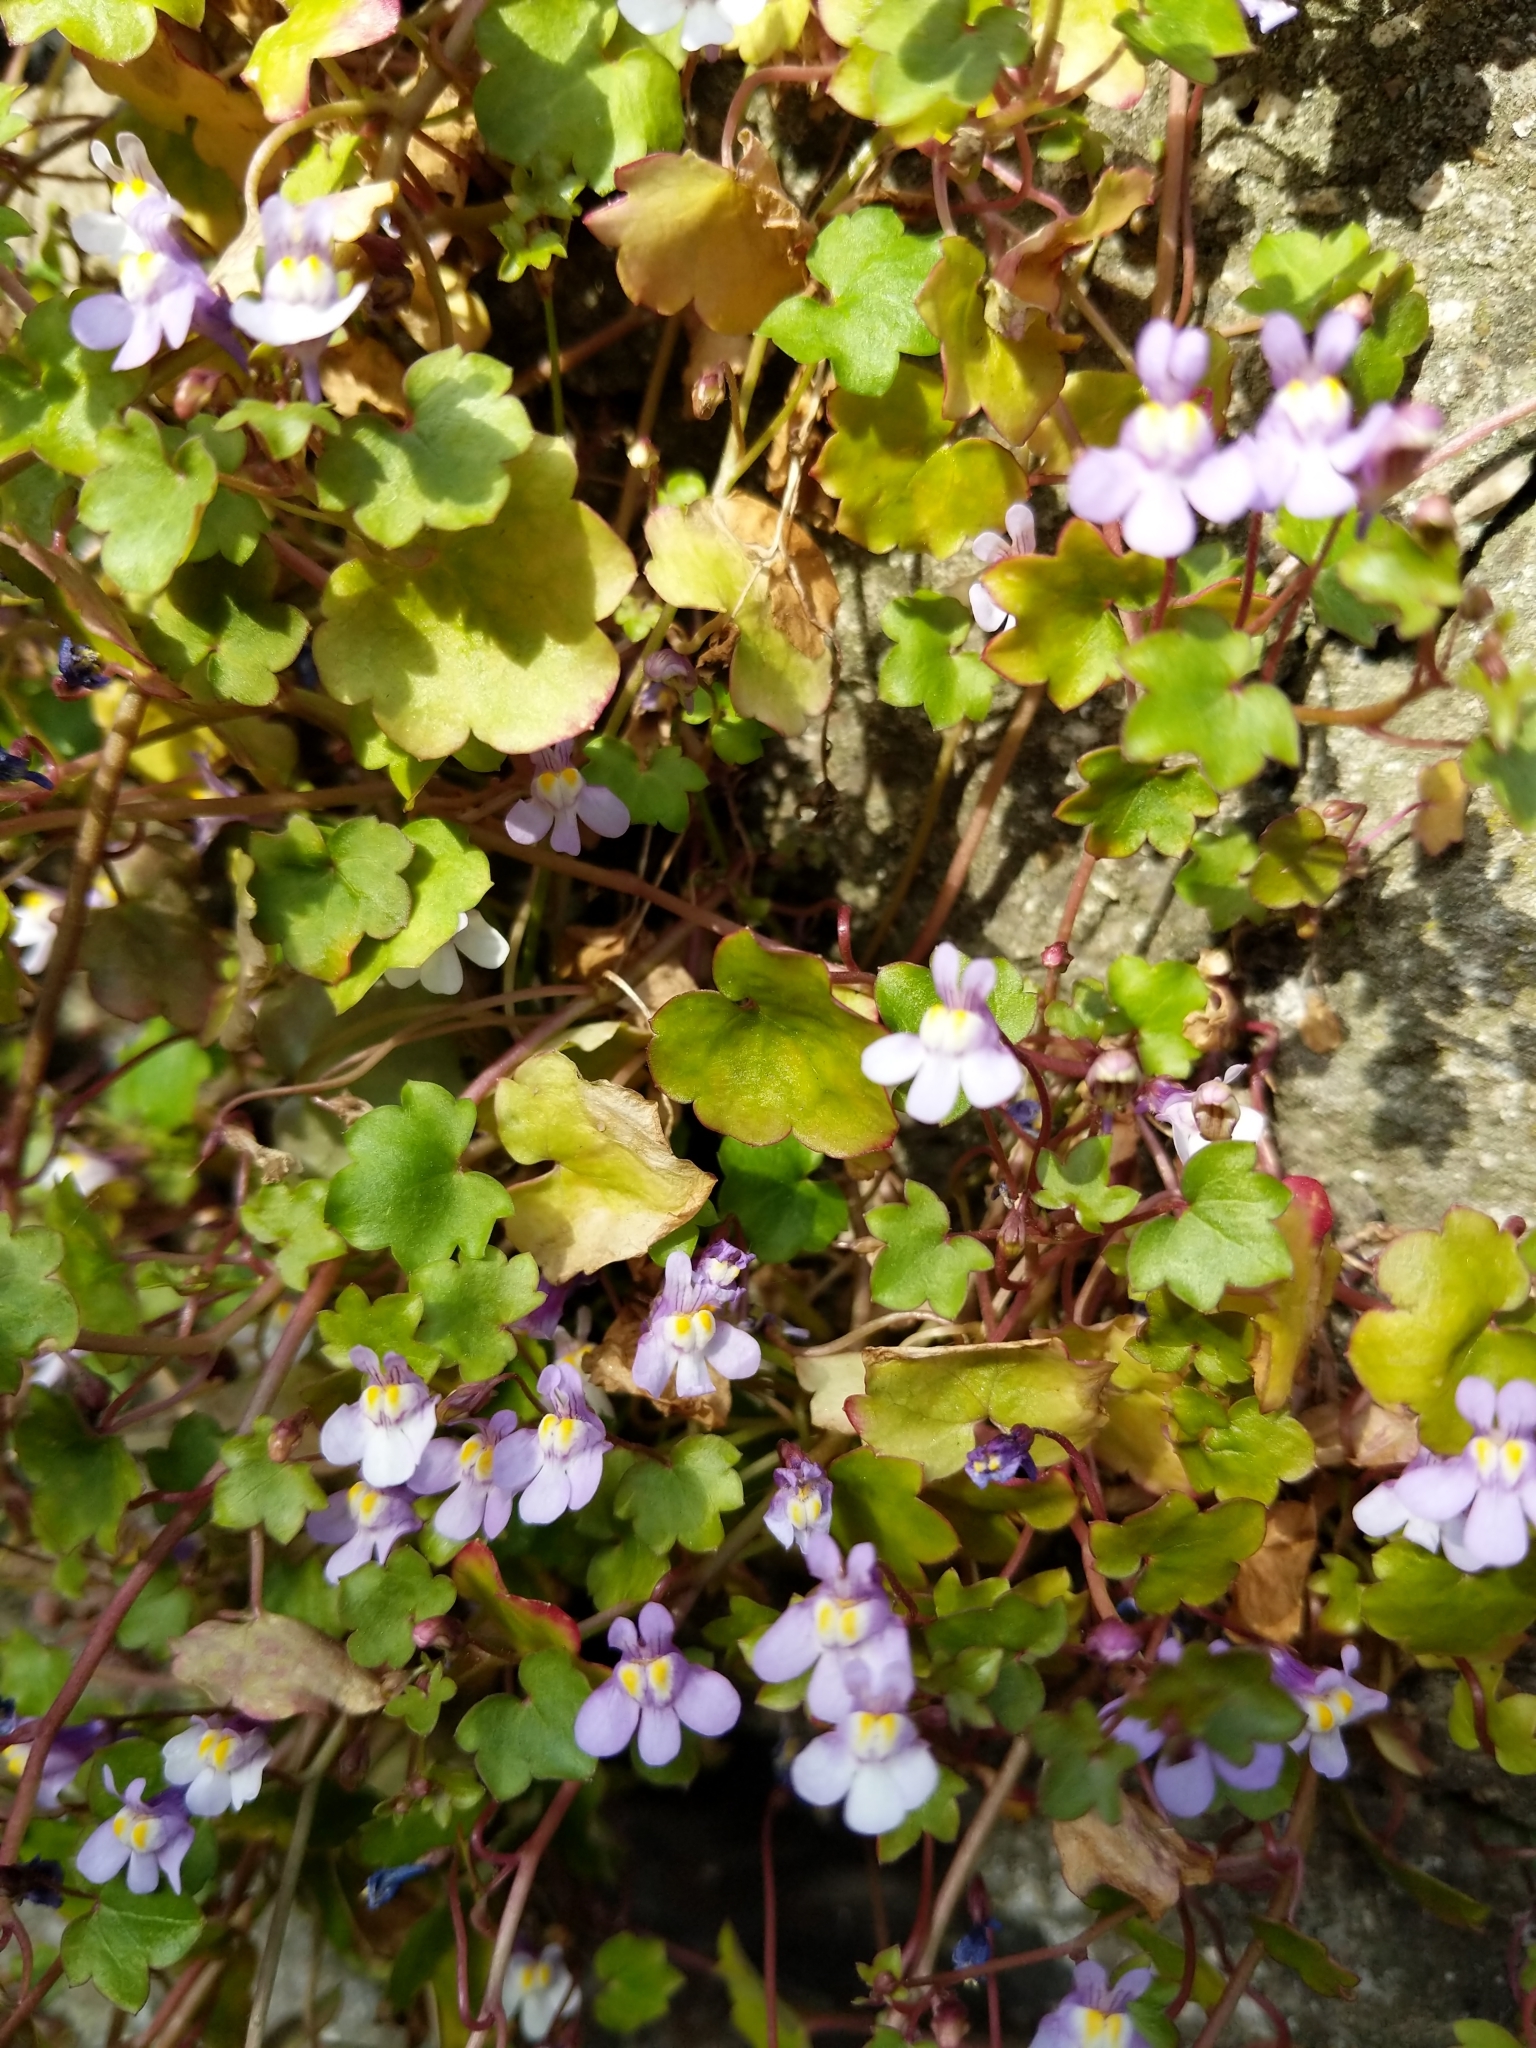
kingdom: Plantae
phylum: Tracheophyta
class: Magnoliopsida
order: Lamiales
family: Plantaginaceae
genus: Cymbalaria
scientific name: Cymbalaria muralis
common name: Ivy-leaved toadflax
